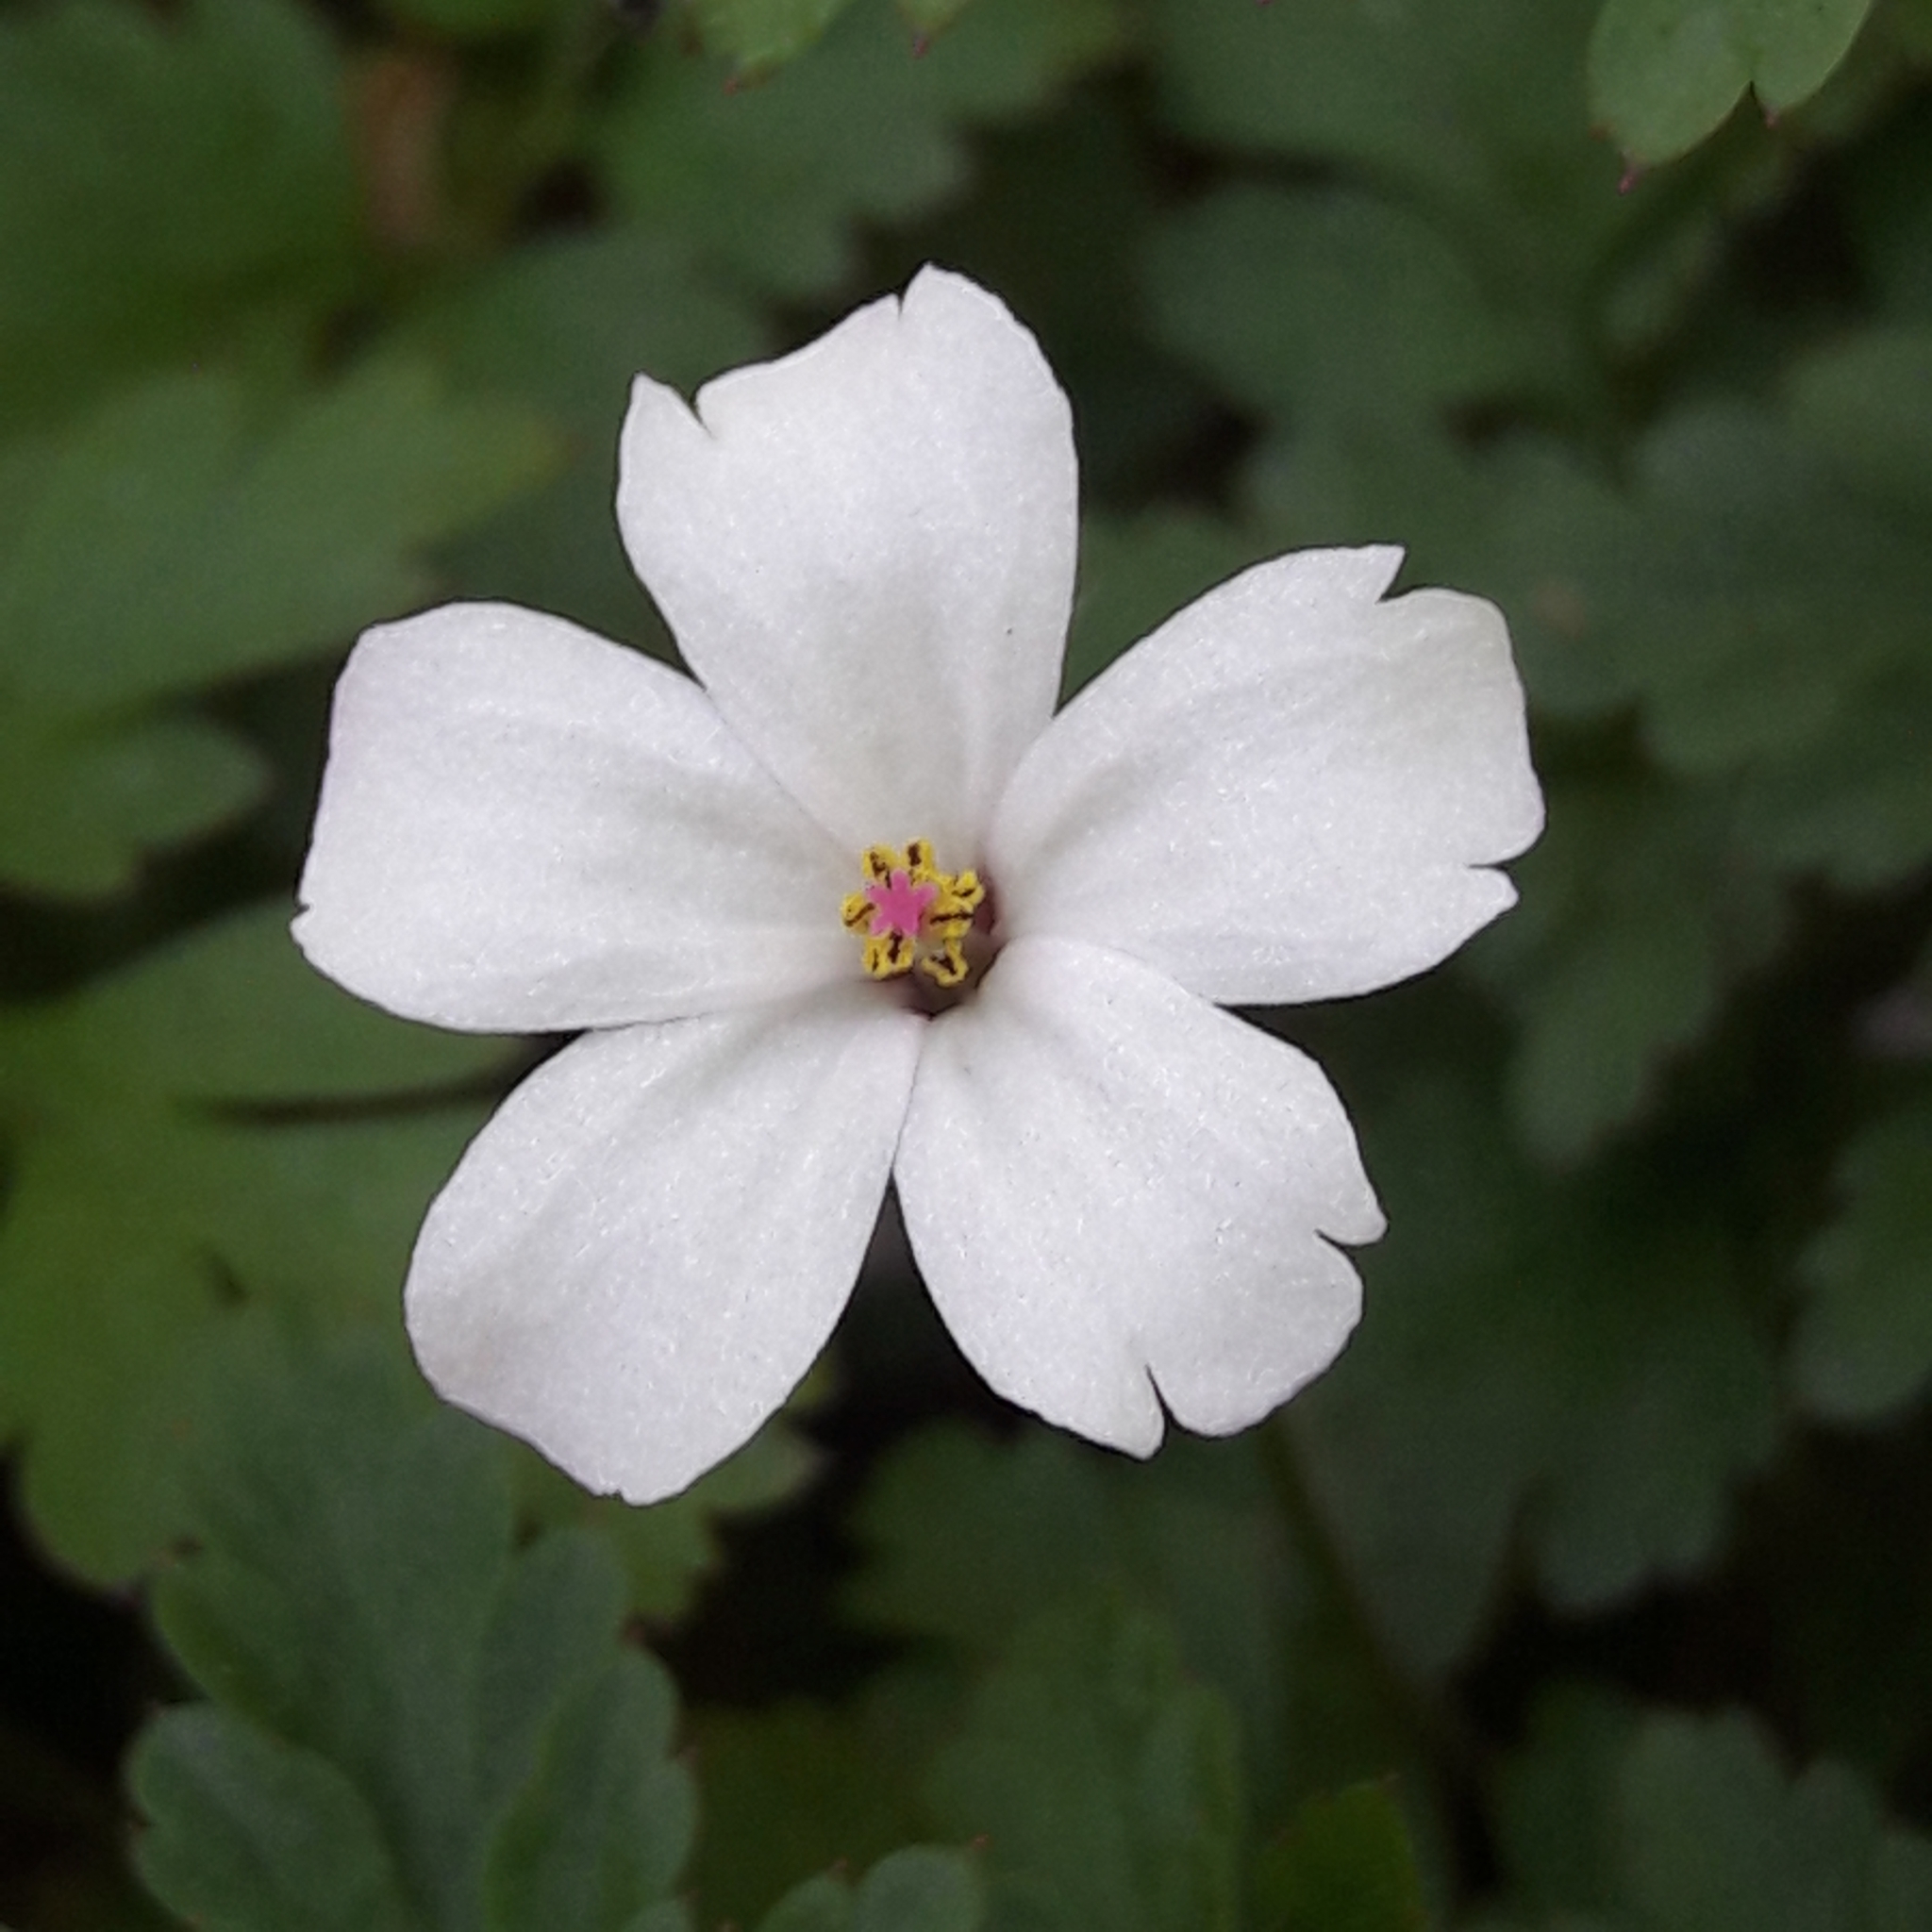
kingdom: Plantae
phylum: Tracheophyta
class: Magnoliopsida
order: Geraniales
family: Geraniaceae
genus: Geranium
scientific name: Geranium robertianum
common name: Herb-robert
